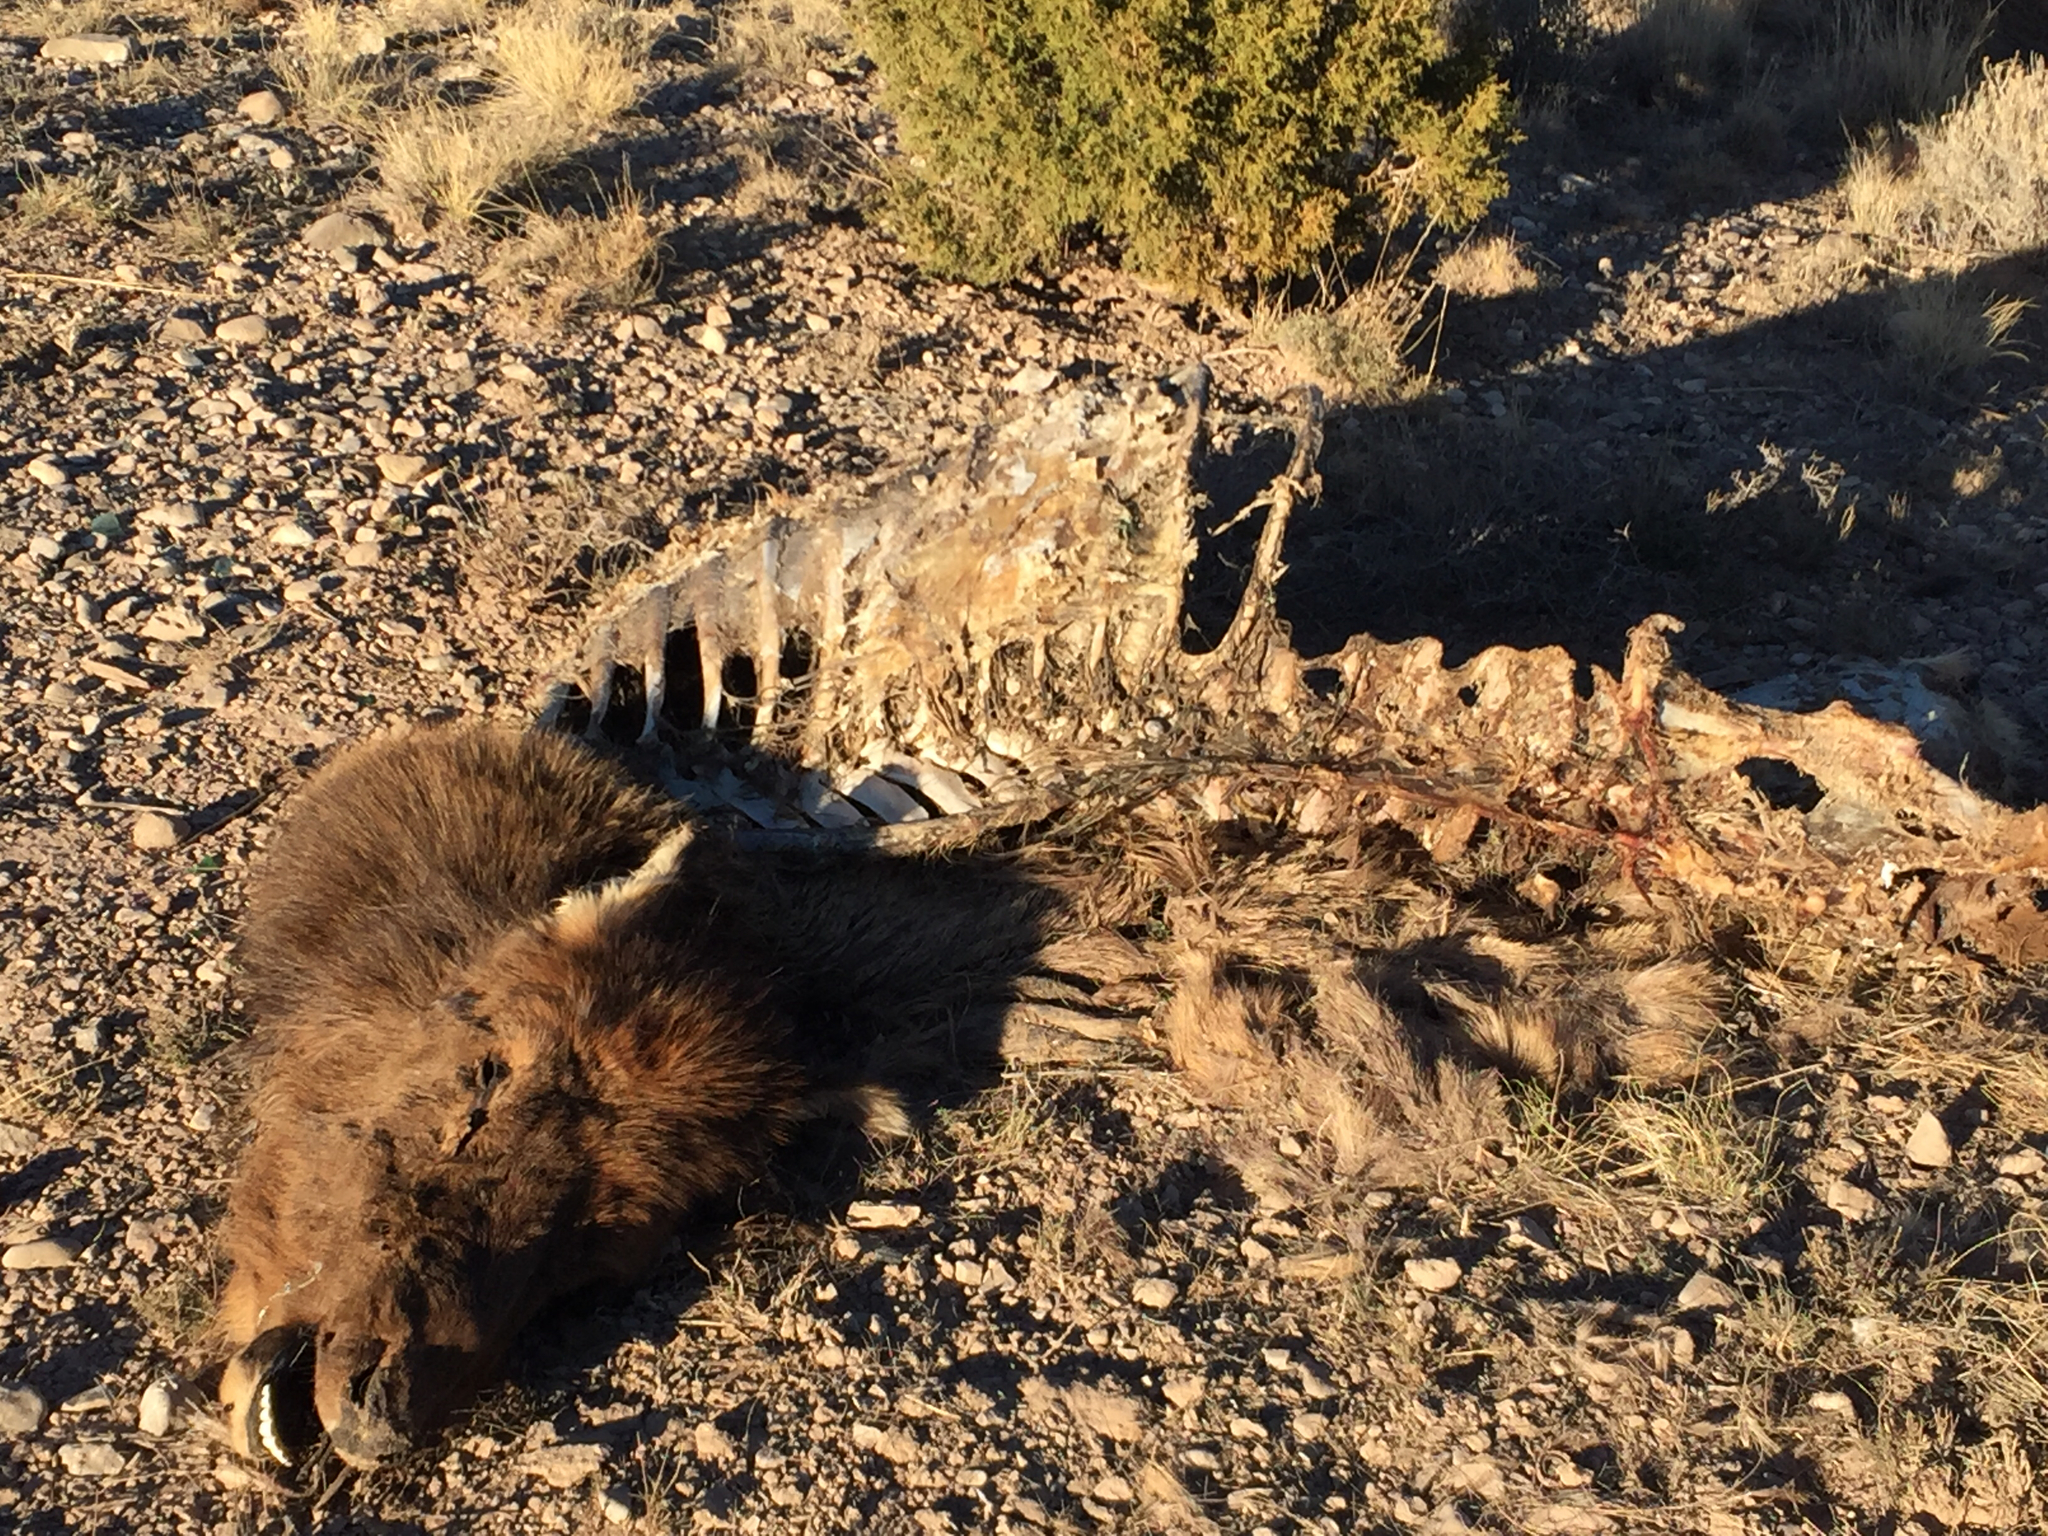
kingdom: Animalia
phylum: Chordata
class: Mammalia
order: Artiodactyla
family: Cervidae
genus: Cervus
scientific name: Cervus elaphus
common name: Red deer
